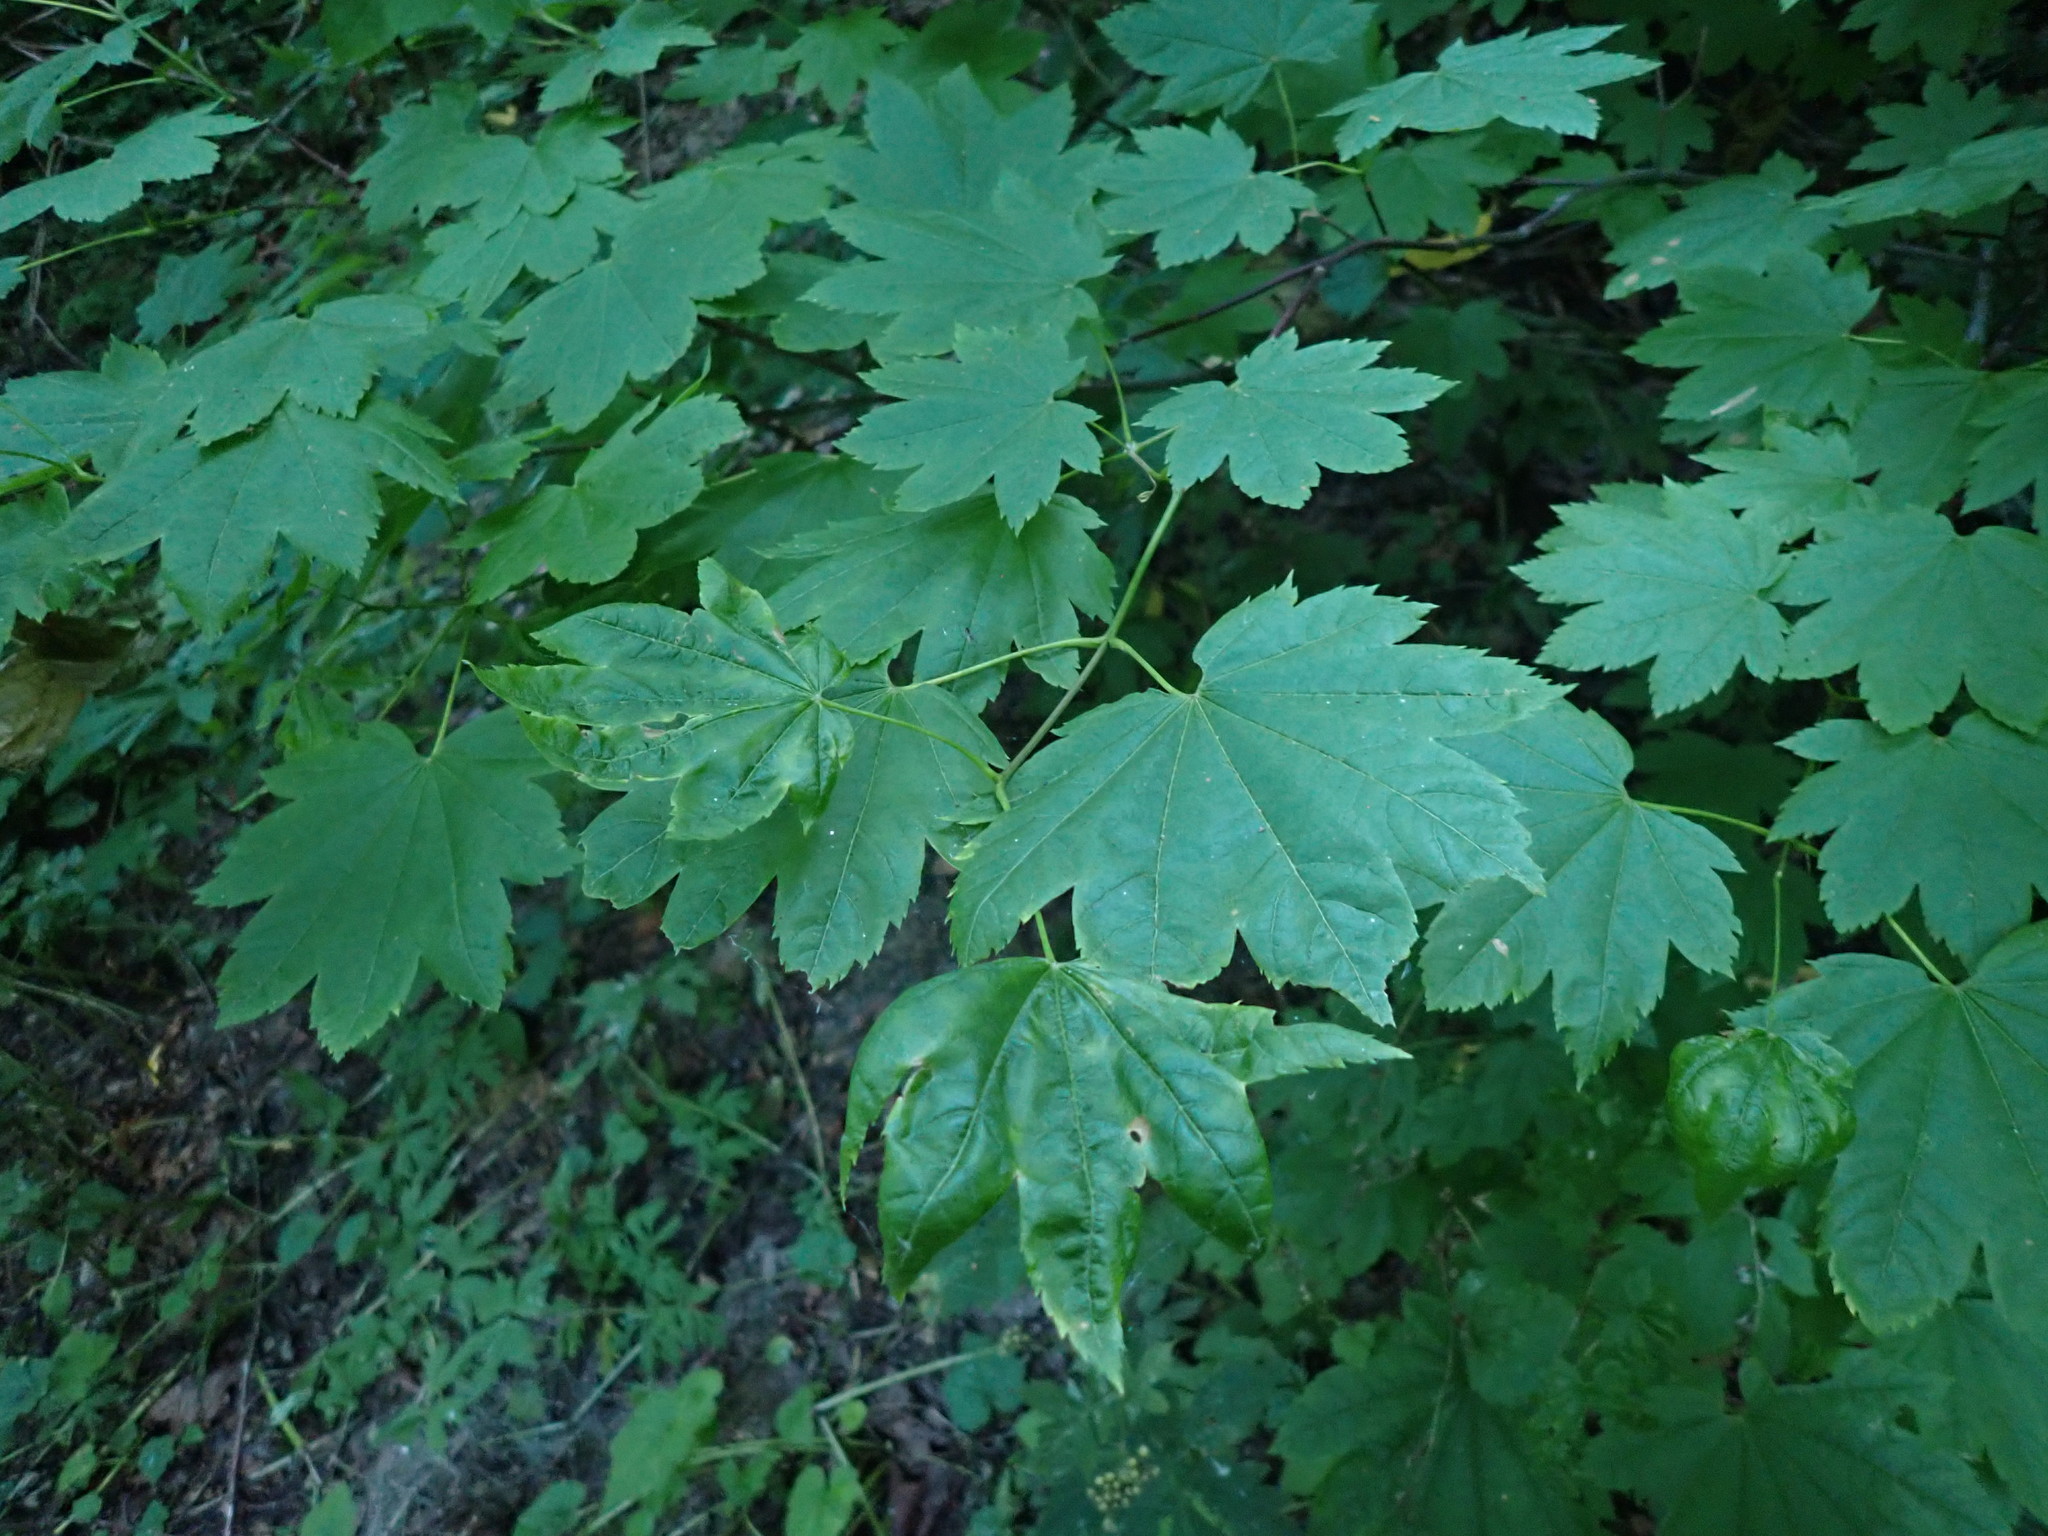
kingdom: Plantae
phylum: Tracheophyta
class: Magnoliopsida
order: Sapindales
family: Sapindaceae
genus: Acer
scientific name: Acer circinatum
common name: Vine maple
